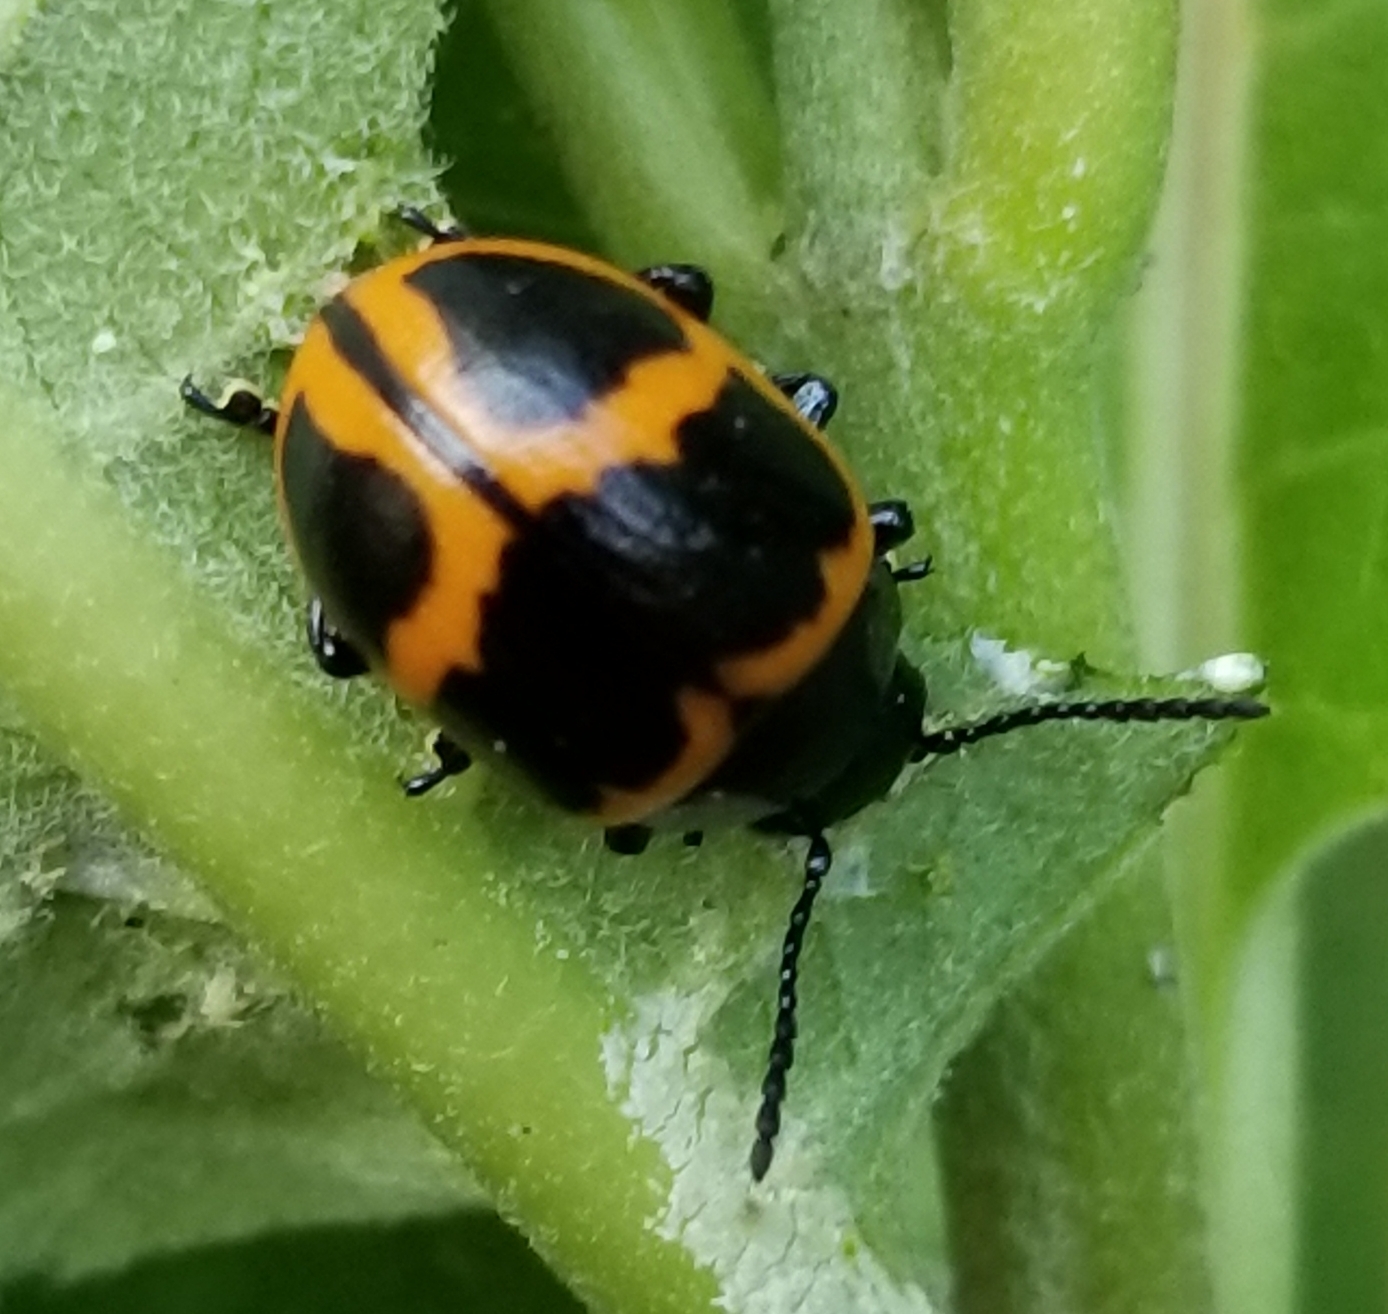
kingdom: Animalia
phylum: Arthropoda
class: Insecta
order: Coleoptera
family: Chrysomelidae
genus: Labidomera
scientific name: Labidomera clivicollis
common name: Swamp milkweed leaf beetle
